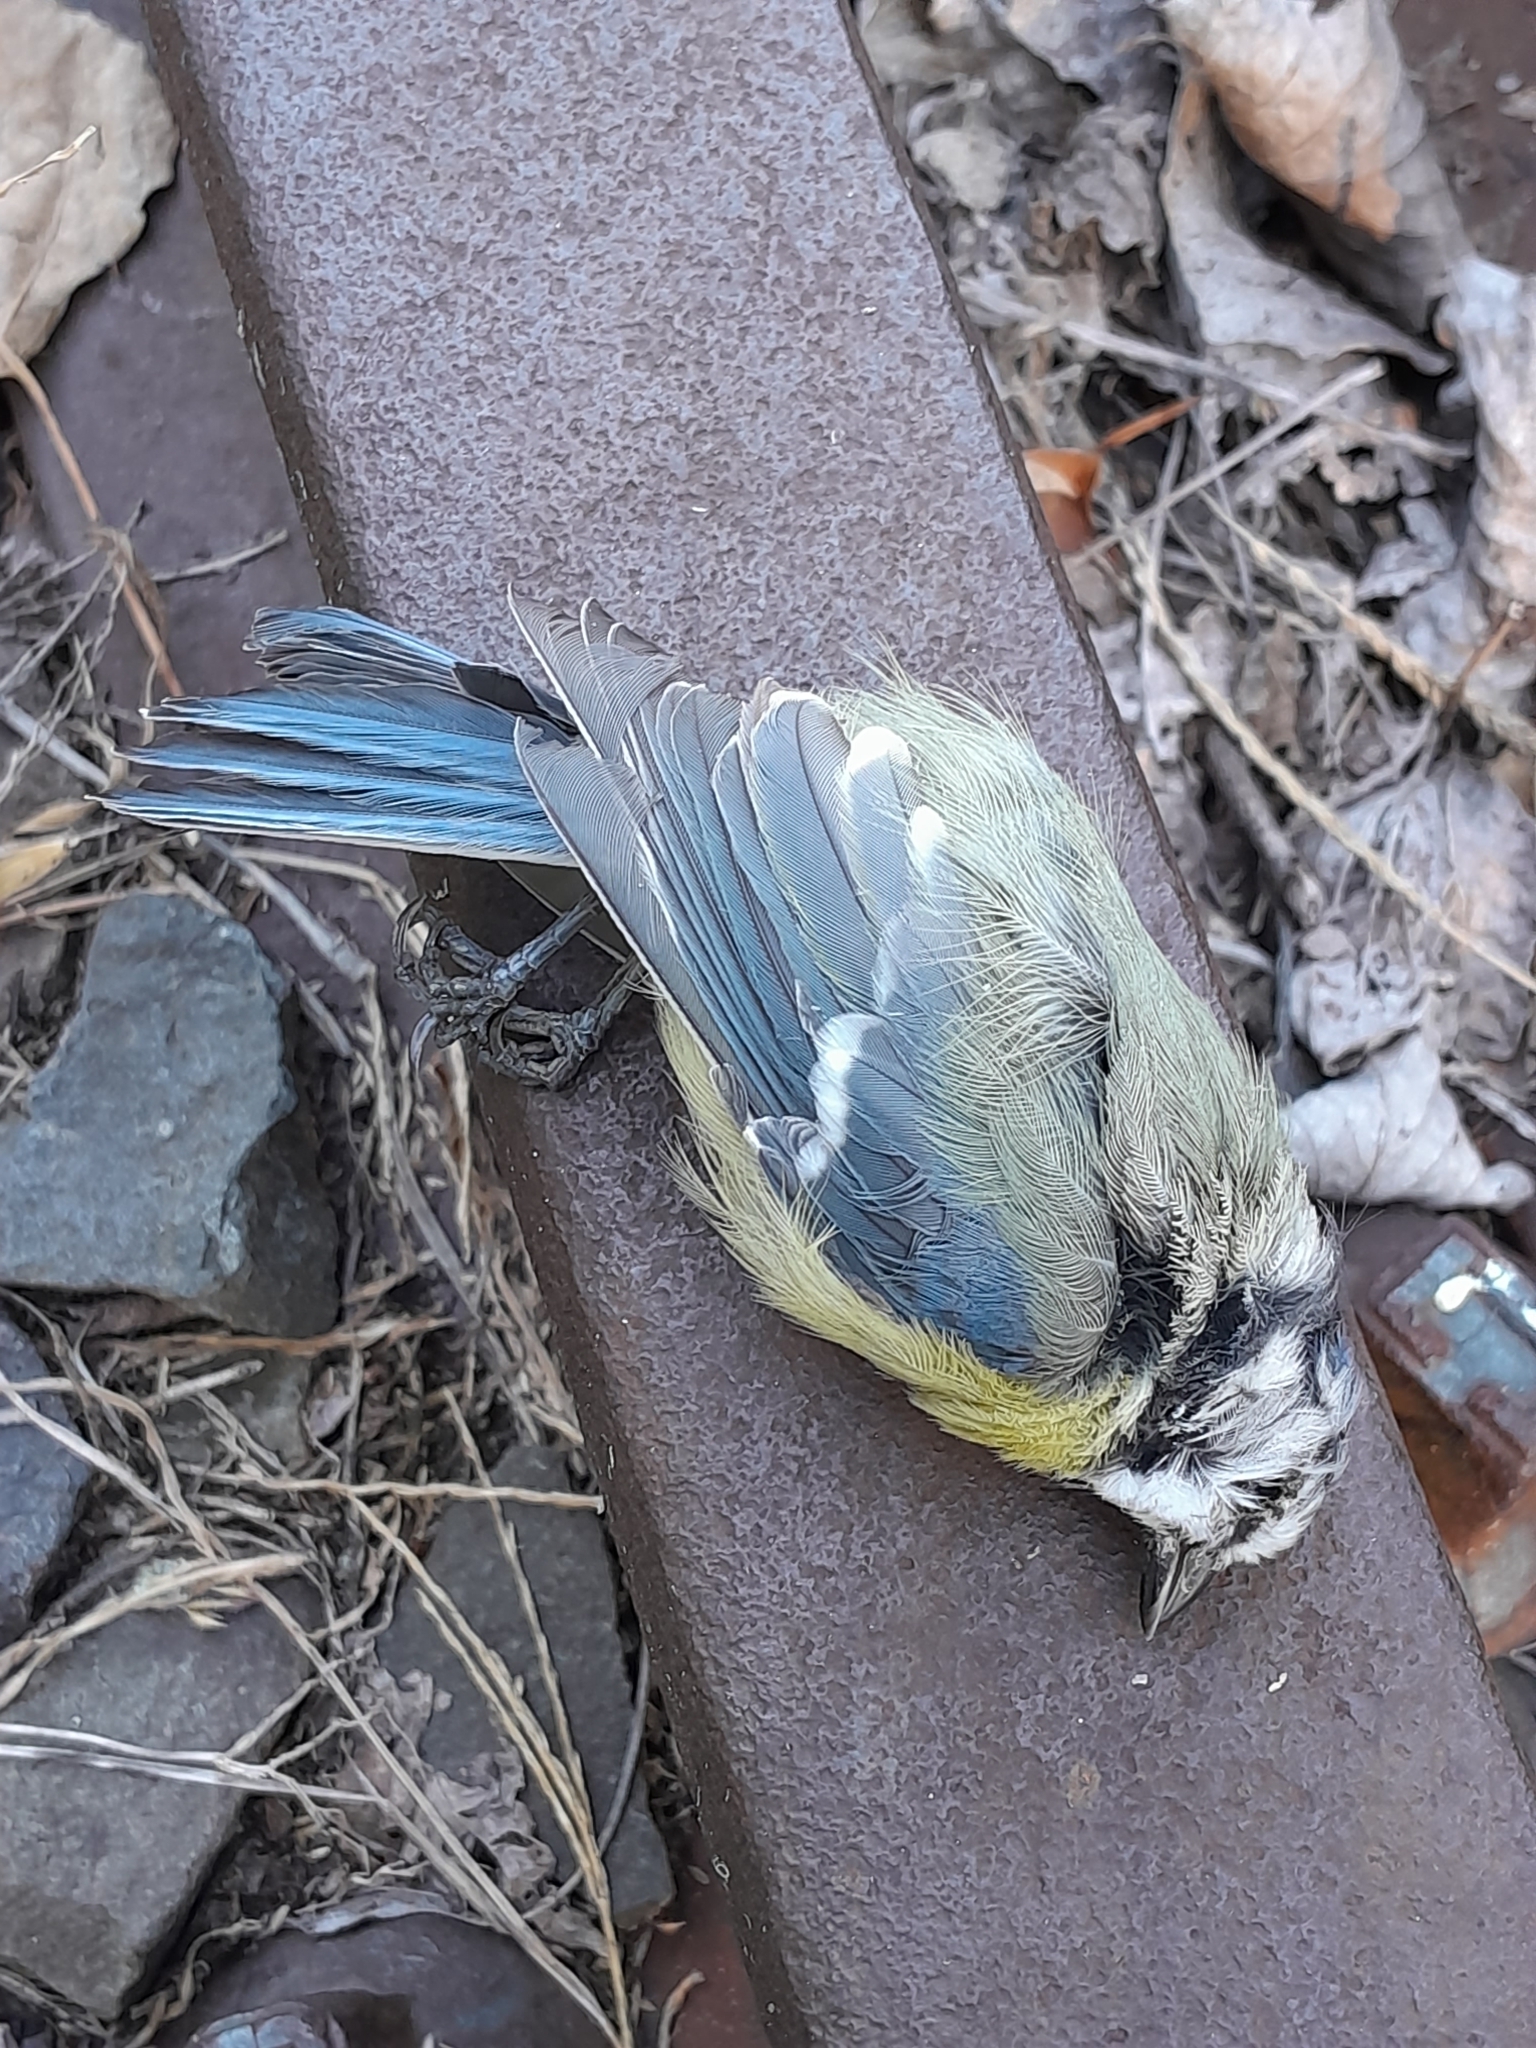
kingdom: Animalia
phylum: Chordata
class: Aves
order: Passeriformes
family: Paridae
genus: Cyanistes
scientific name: Cyanistes caeruleus
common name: Eurasian blue tit
